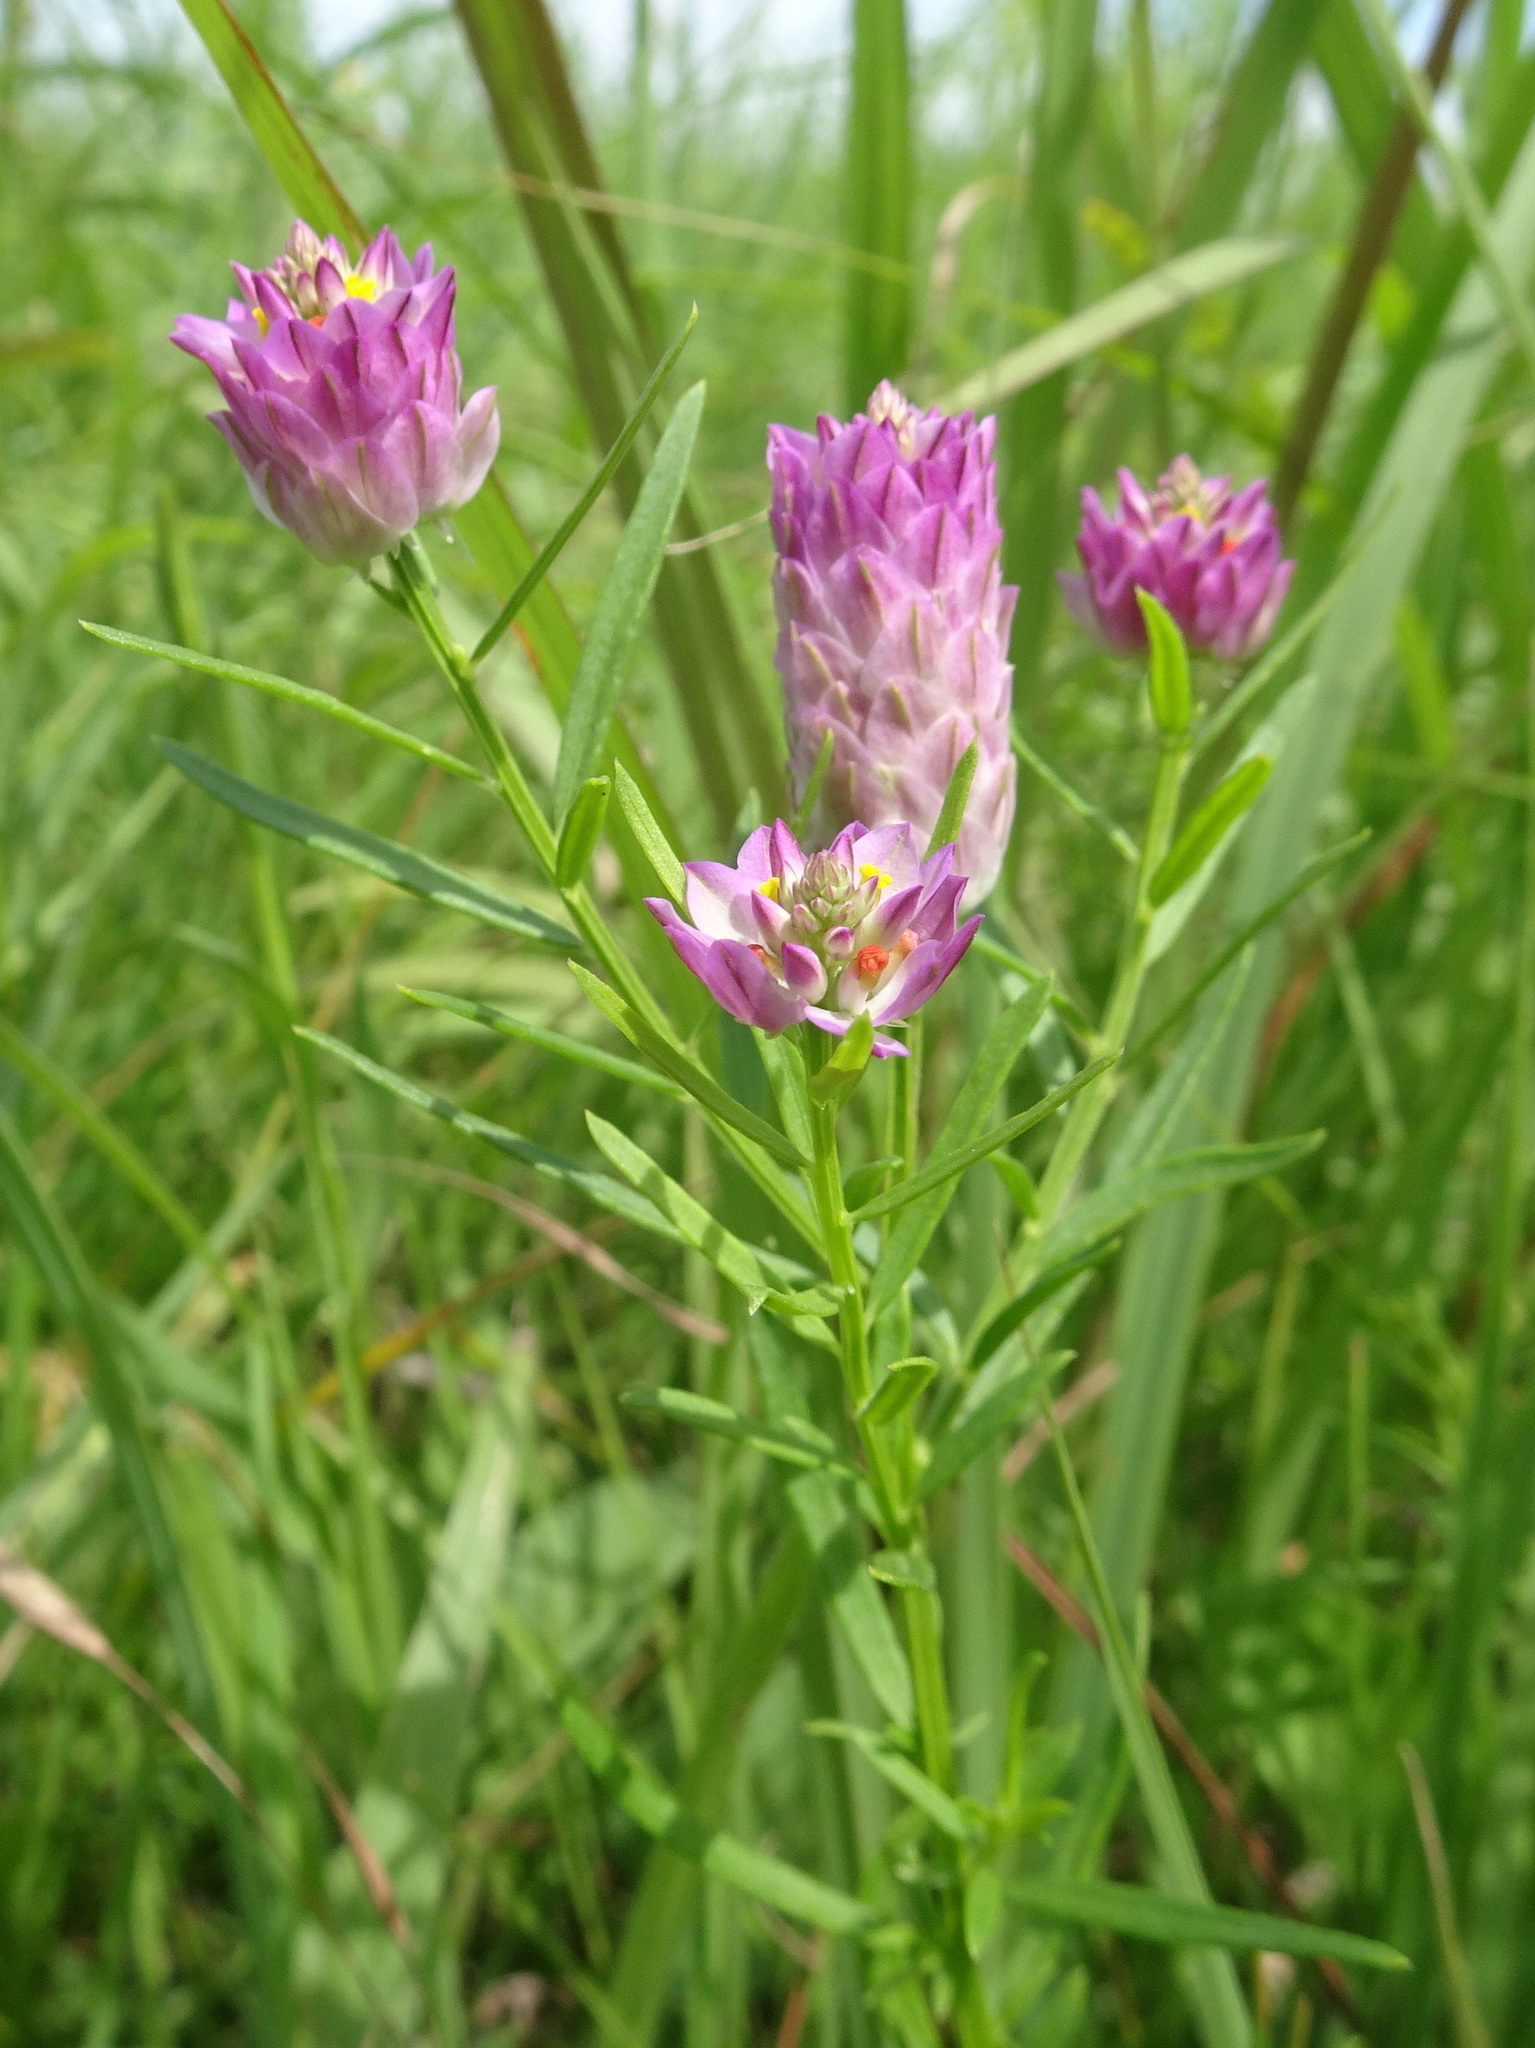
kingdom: Plantae
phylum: Tracheophyta
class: Magnoliopsida
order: Fabales
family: Polygalaceae
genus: Polygala
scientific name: Polygala sanguinea
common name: Blood milkwort
